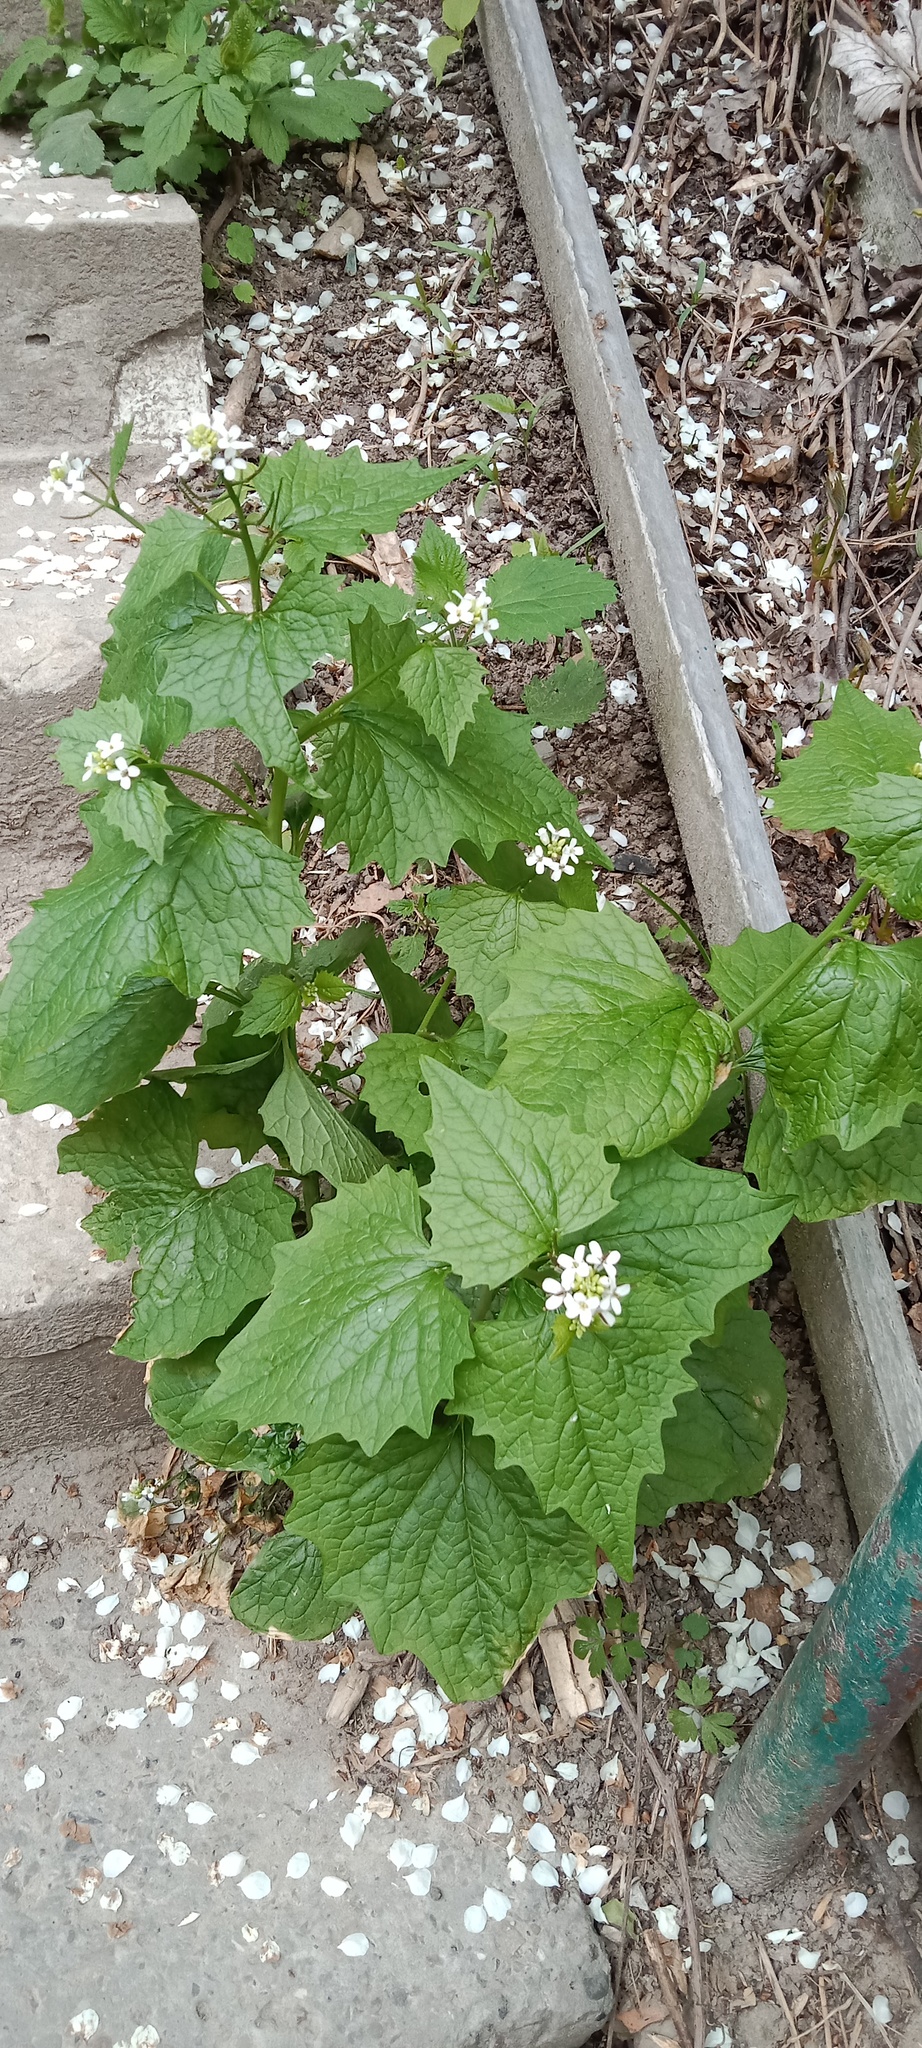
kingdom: Plantae
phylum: Tracheophyta
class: Magnoliopsida
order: Brassicales
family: Brassicaceae
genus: Alliaria
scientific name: Alliaria petiolata
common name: Garlic mustard
